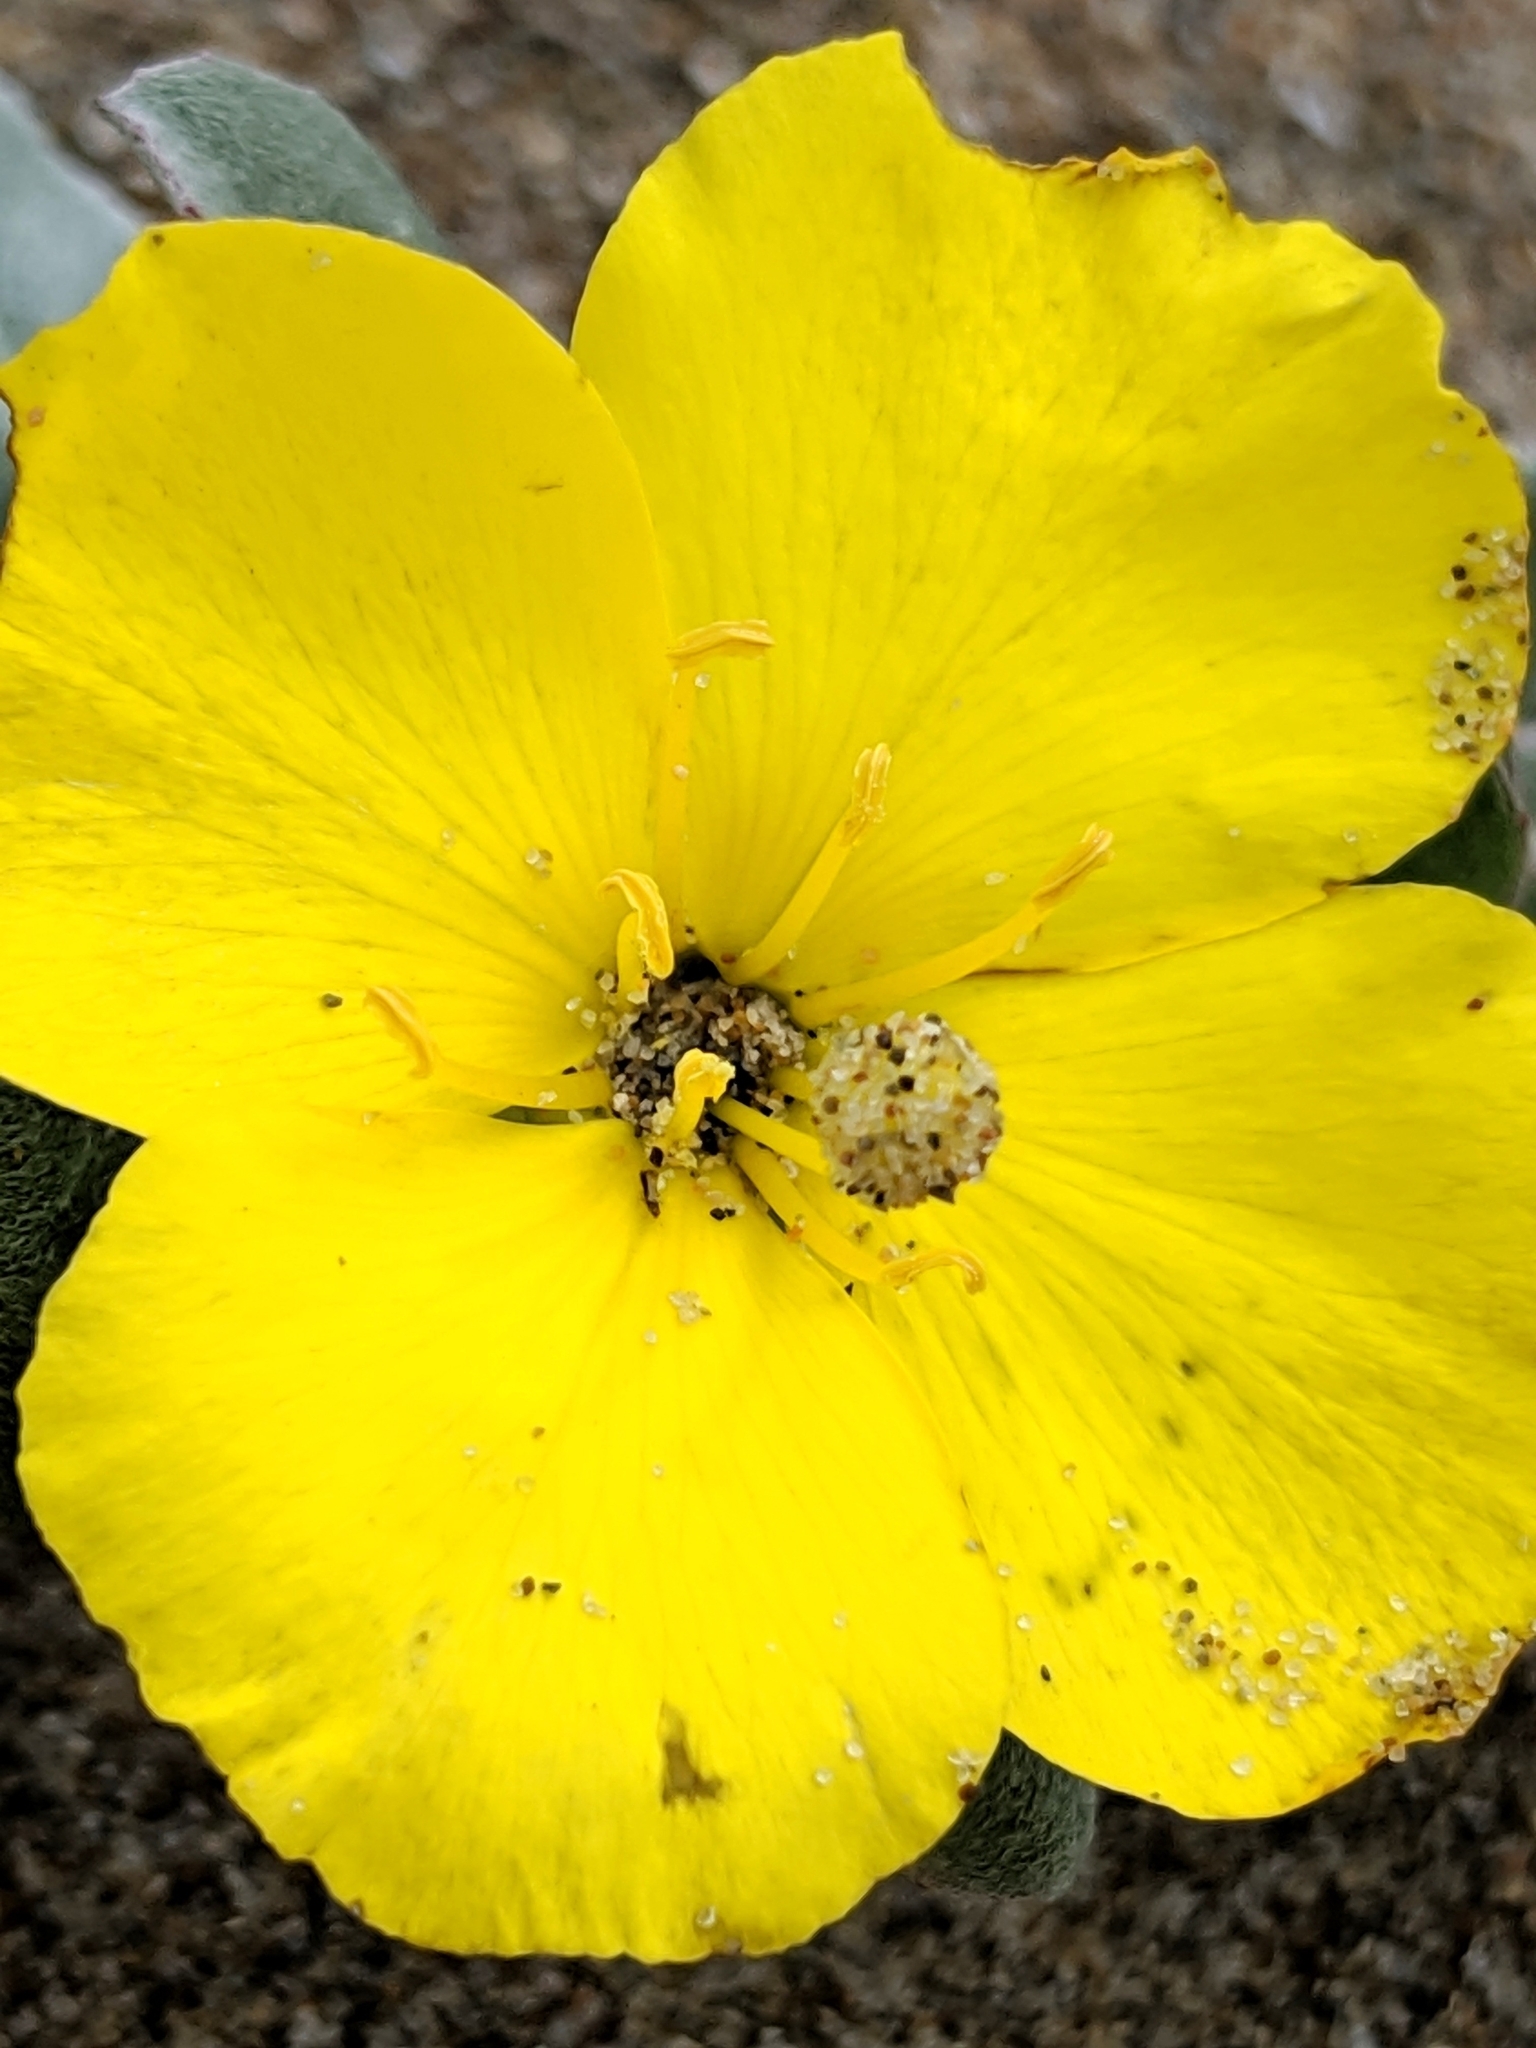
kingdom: Plantae
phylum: Tracheophyta
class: Magnoliopsida
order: Myrtales
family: Onagraceae
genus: Camissoniopsis
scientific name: Camissoniopsis cheiranthifolia
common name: Beach suncup
